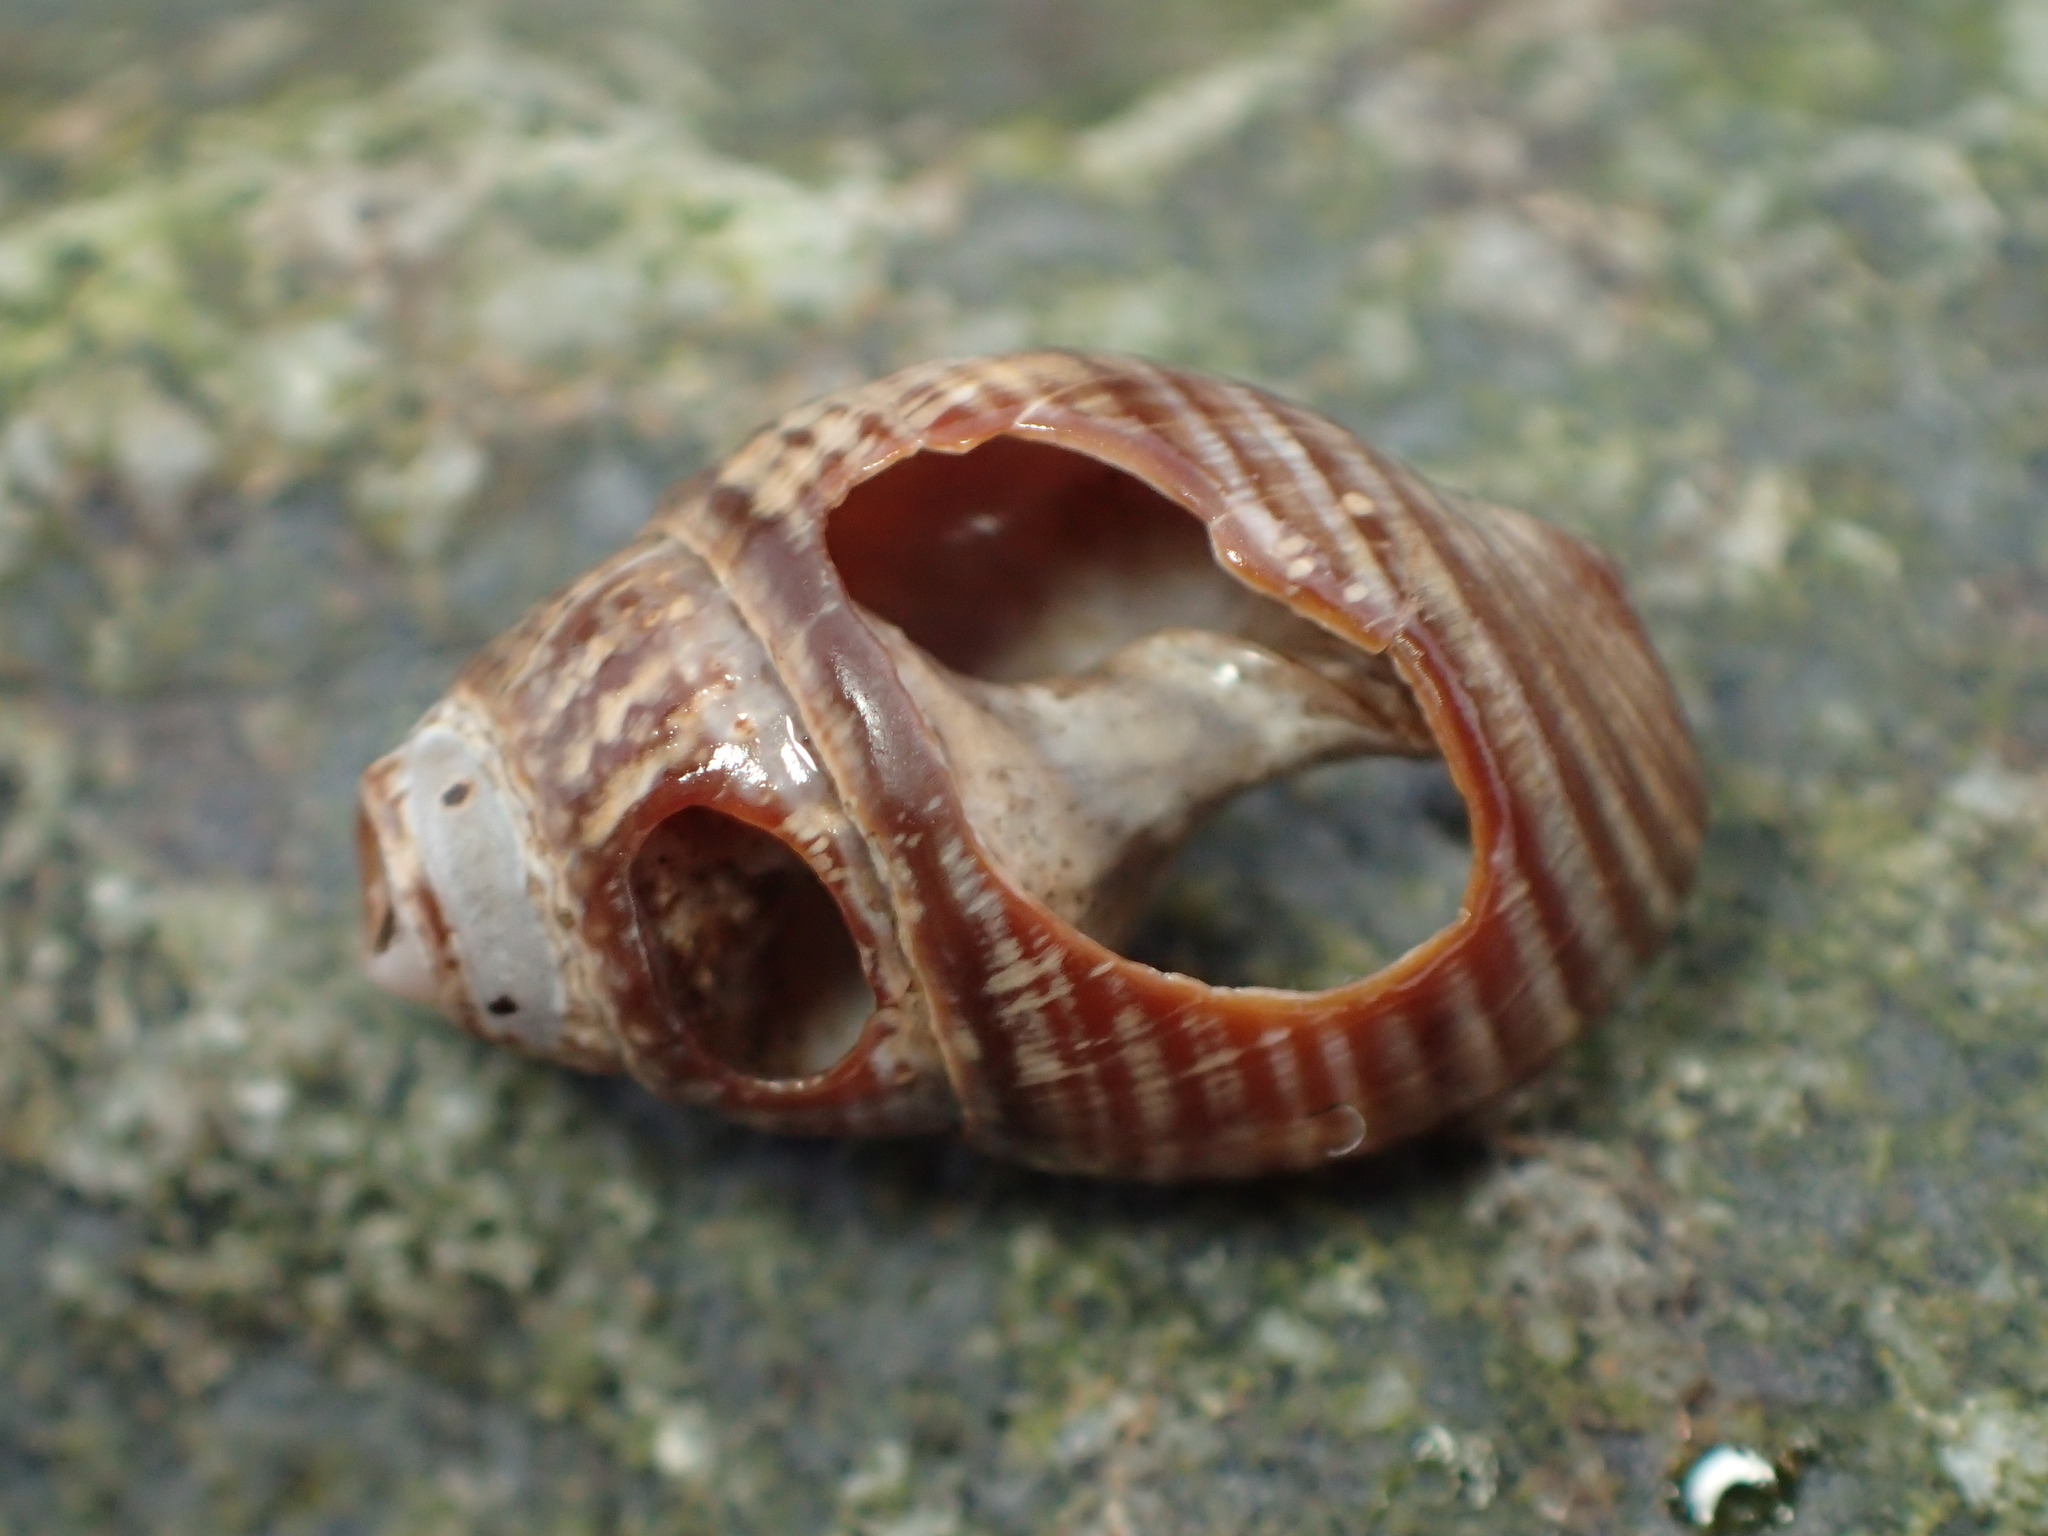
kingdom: Animalia
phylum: Mollusca
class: Gastropoda
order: Neogastropoda
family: Nassariidae
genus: Ilyanassa
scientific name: Ilyanassa obsoleta
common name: Eastern mudsnail
